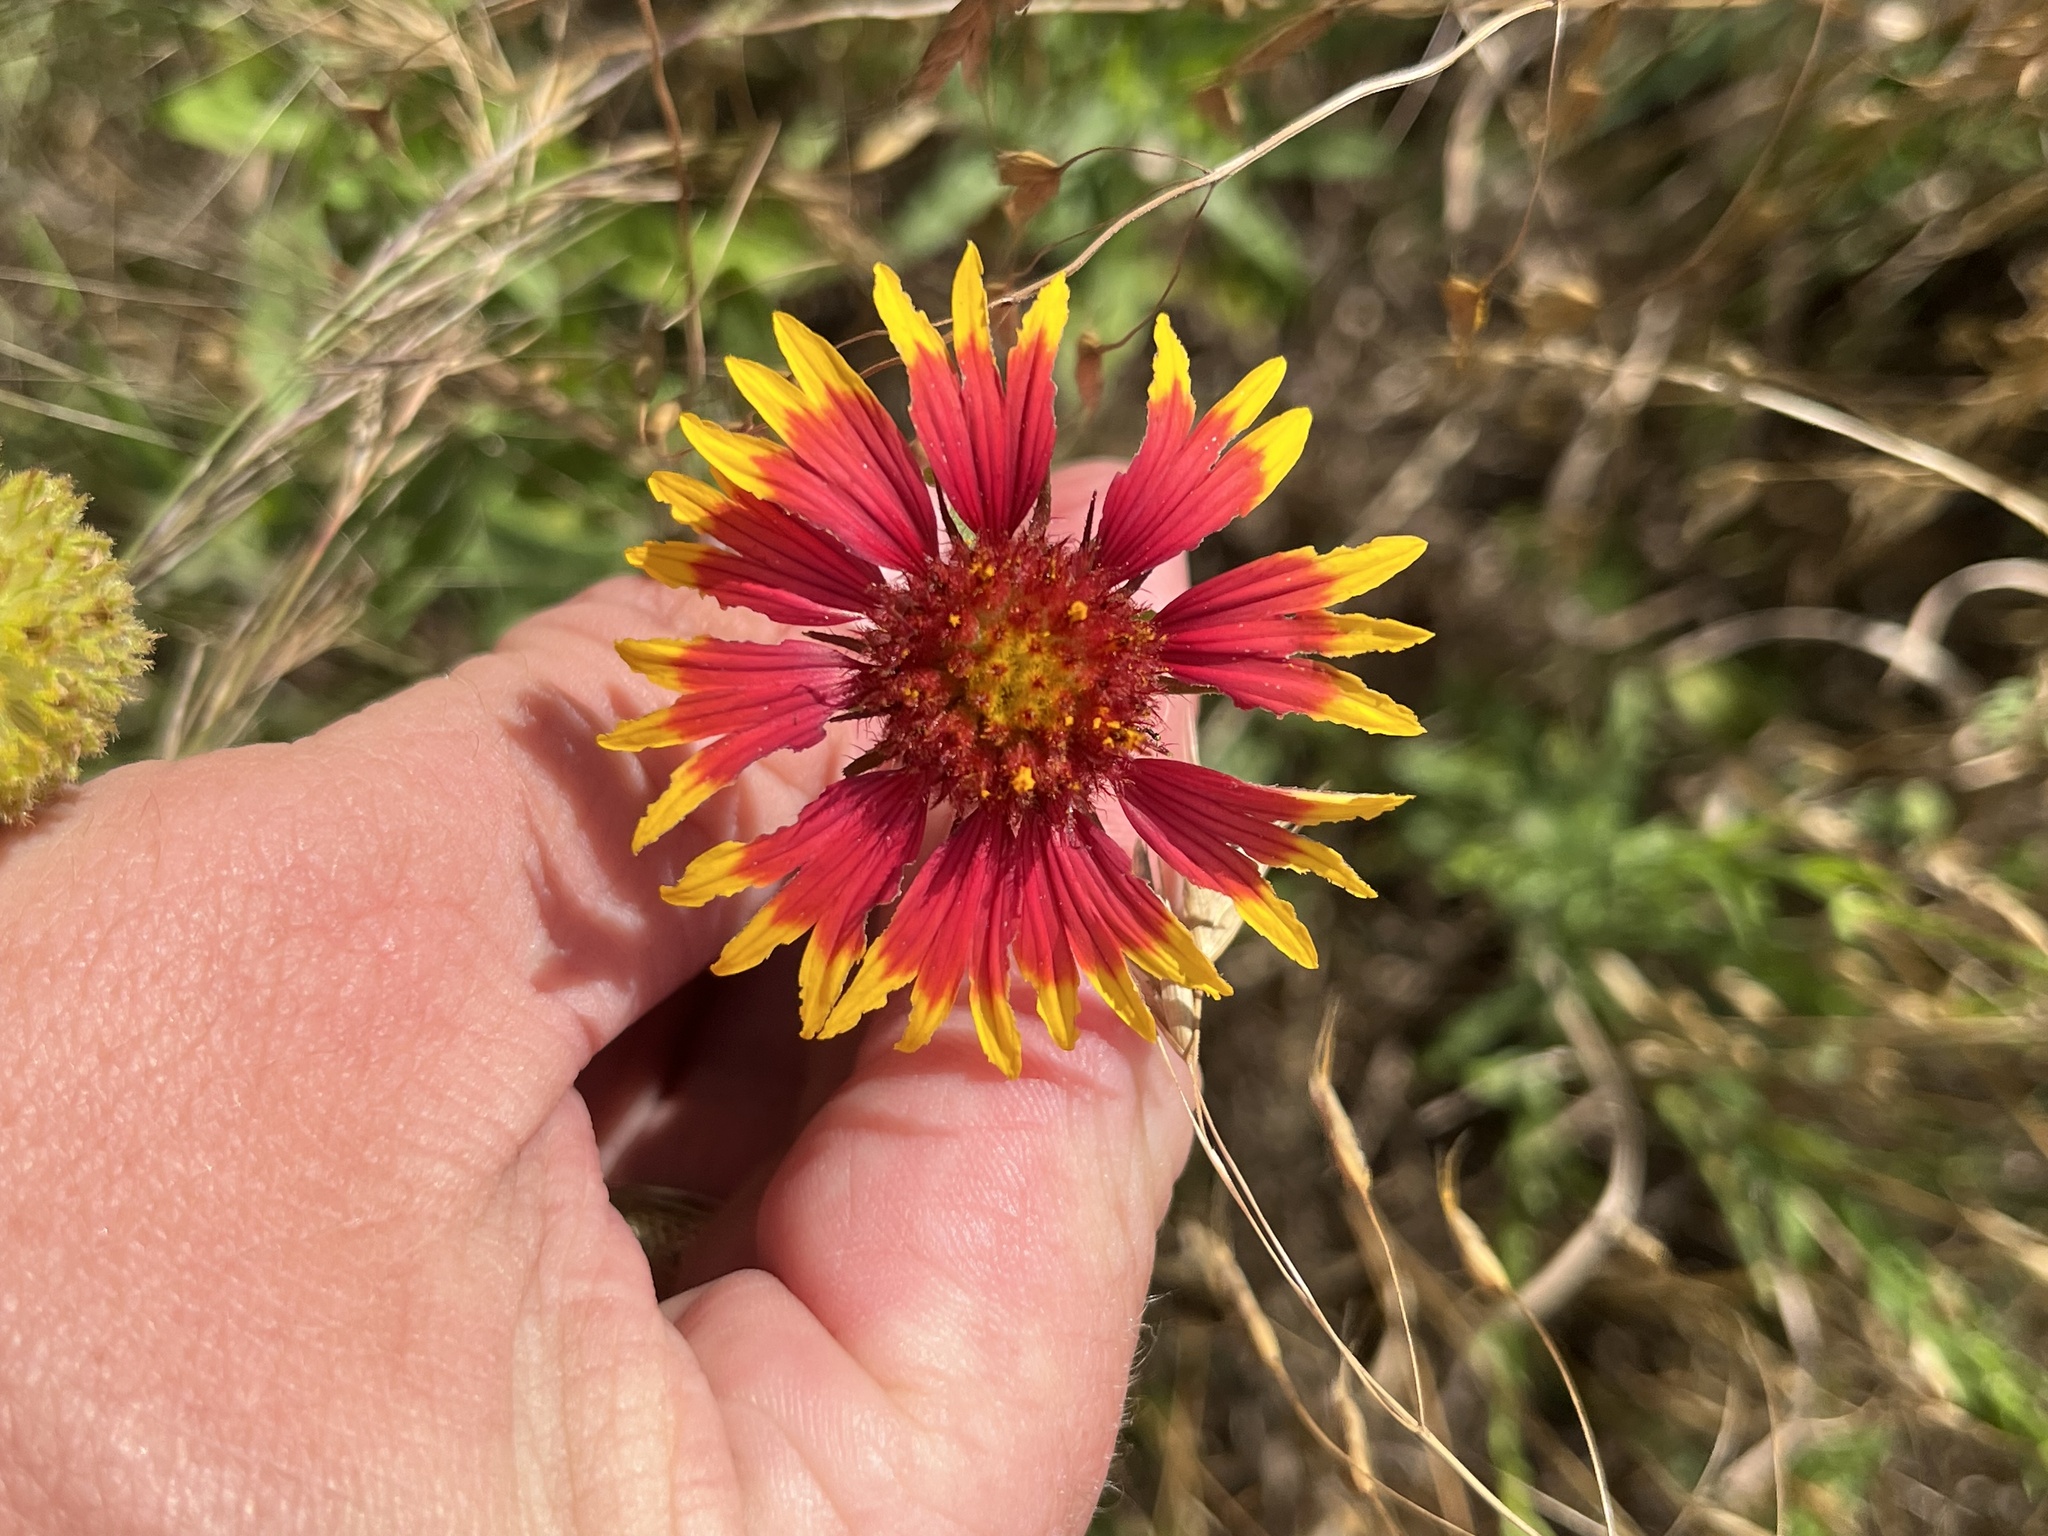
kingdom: Plantae
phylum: Tracheophyta
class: Magnoliopsida
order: Asterales
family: Asteraceae
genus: Gaillardia
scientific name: Gaillardia pulchella
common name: Firewheel
